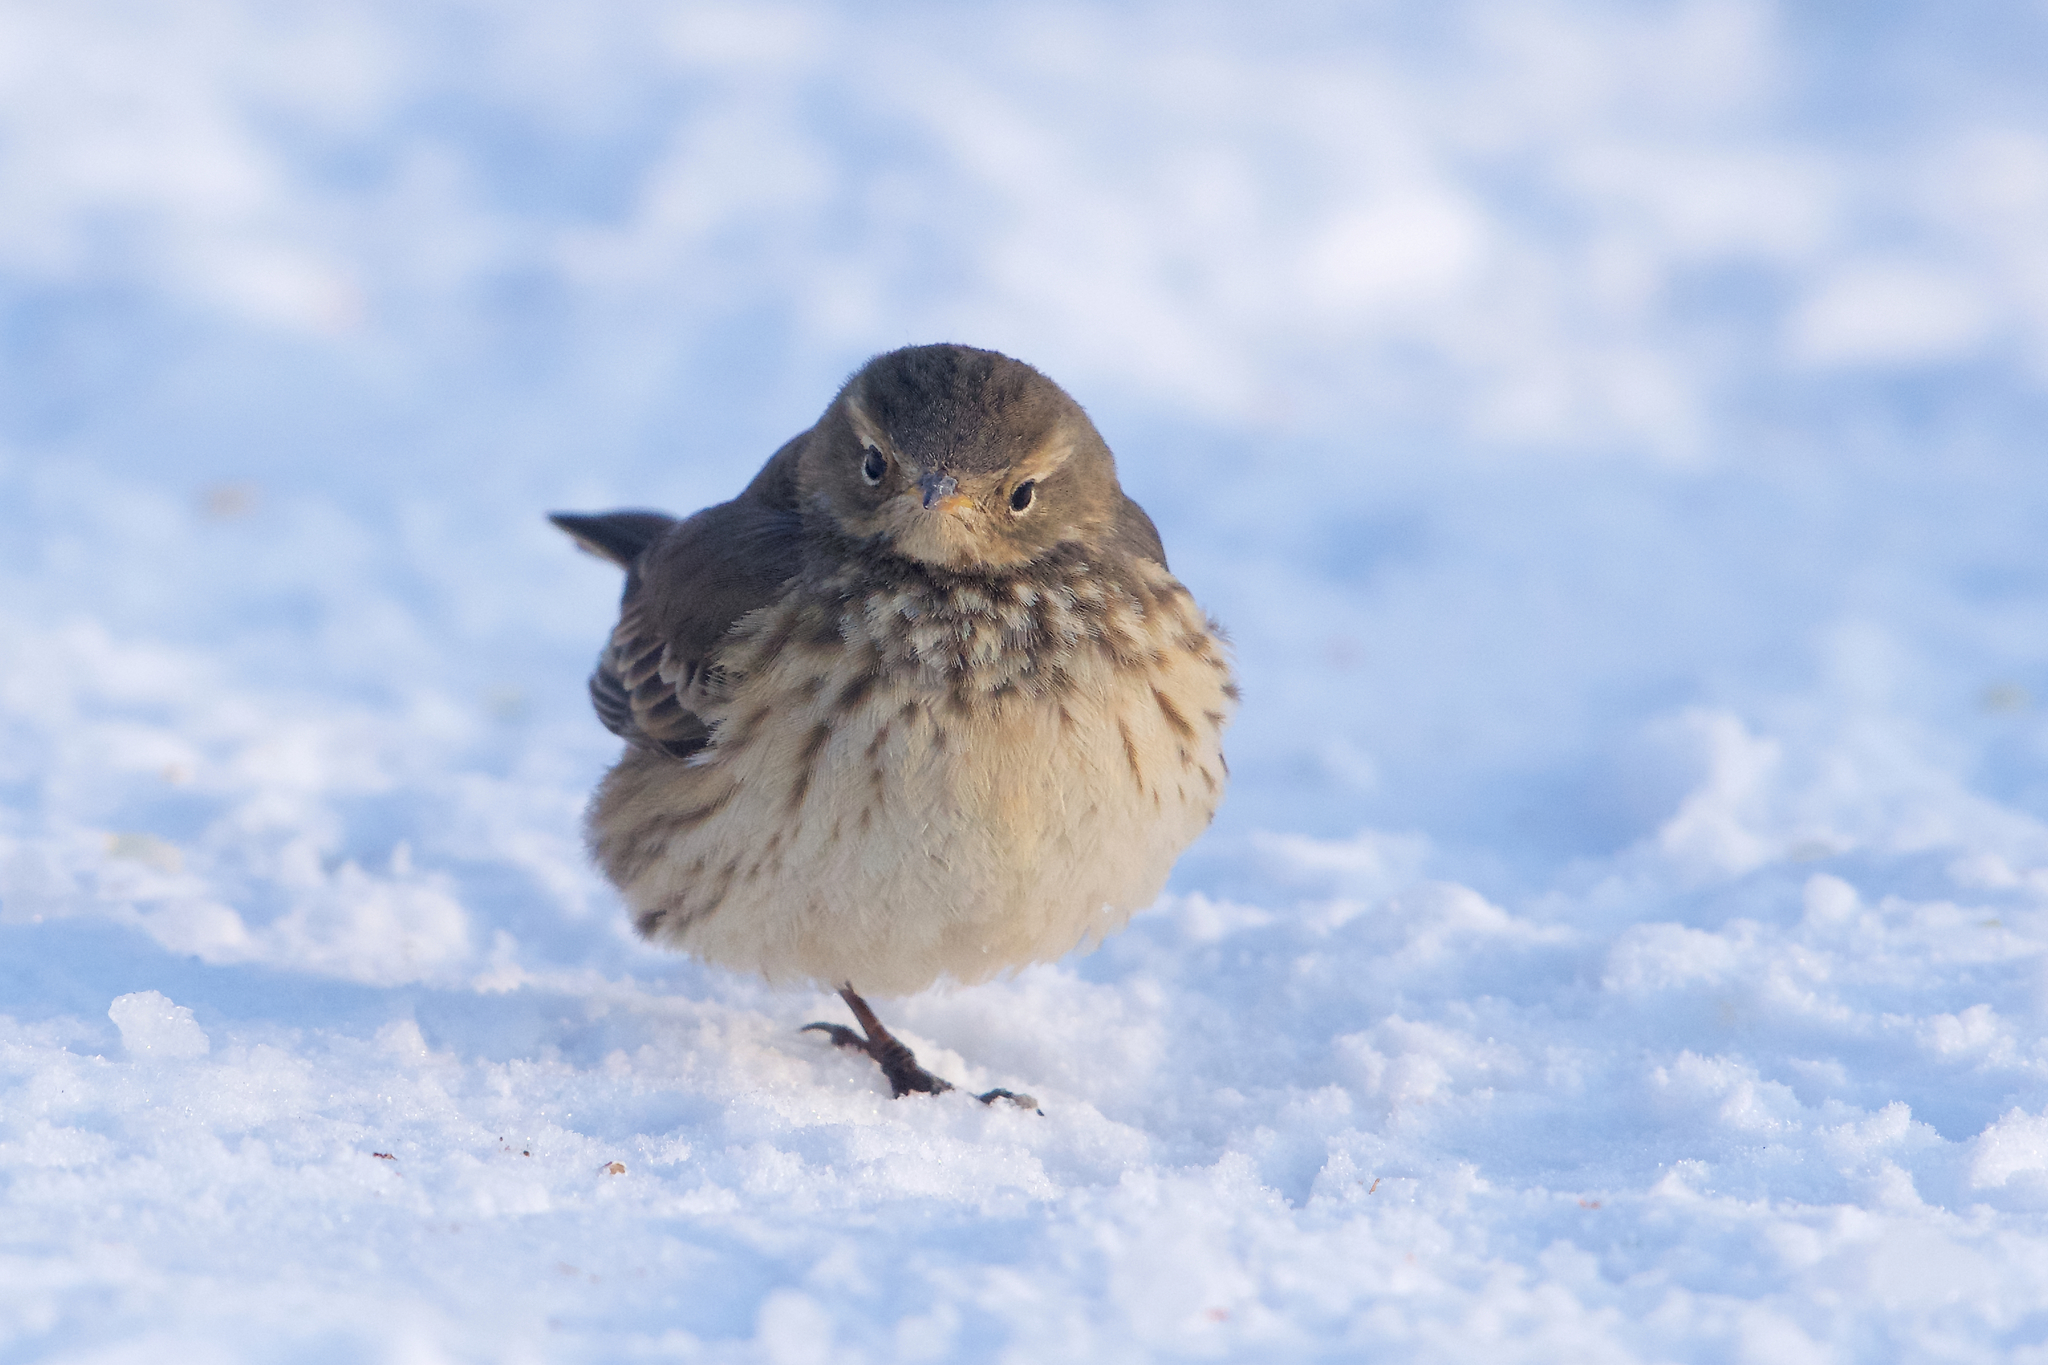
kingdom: Animalia
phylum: Chordata
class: Aves
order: Passeriformes
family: Motacillidae
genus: Anthus
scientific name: Anthus rubescens
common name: Buff-bellied pipit
